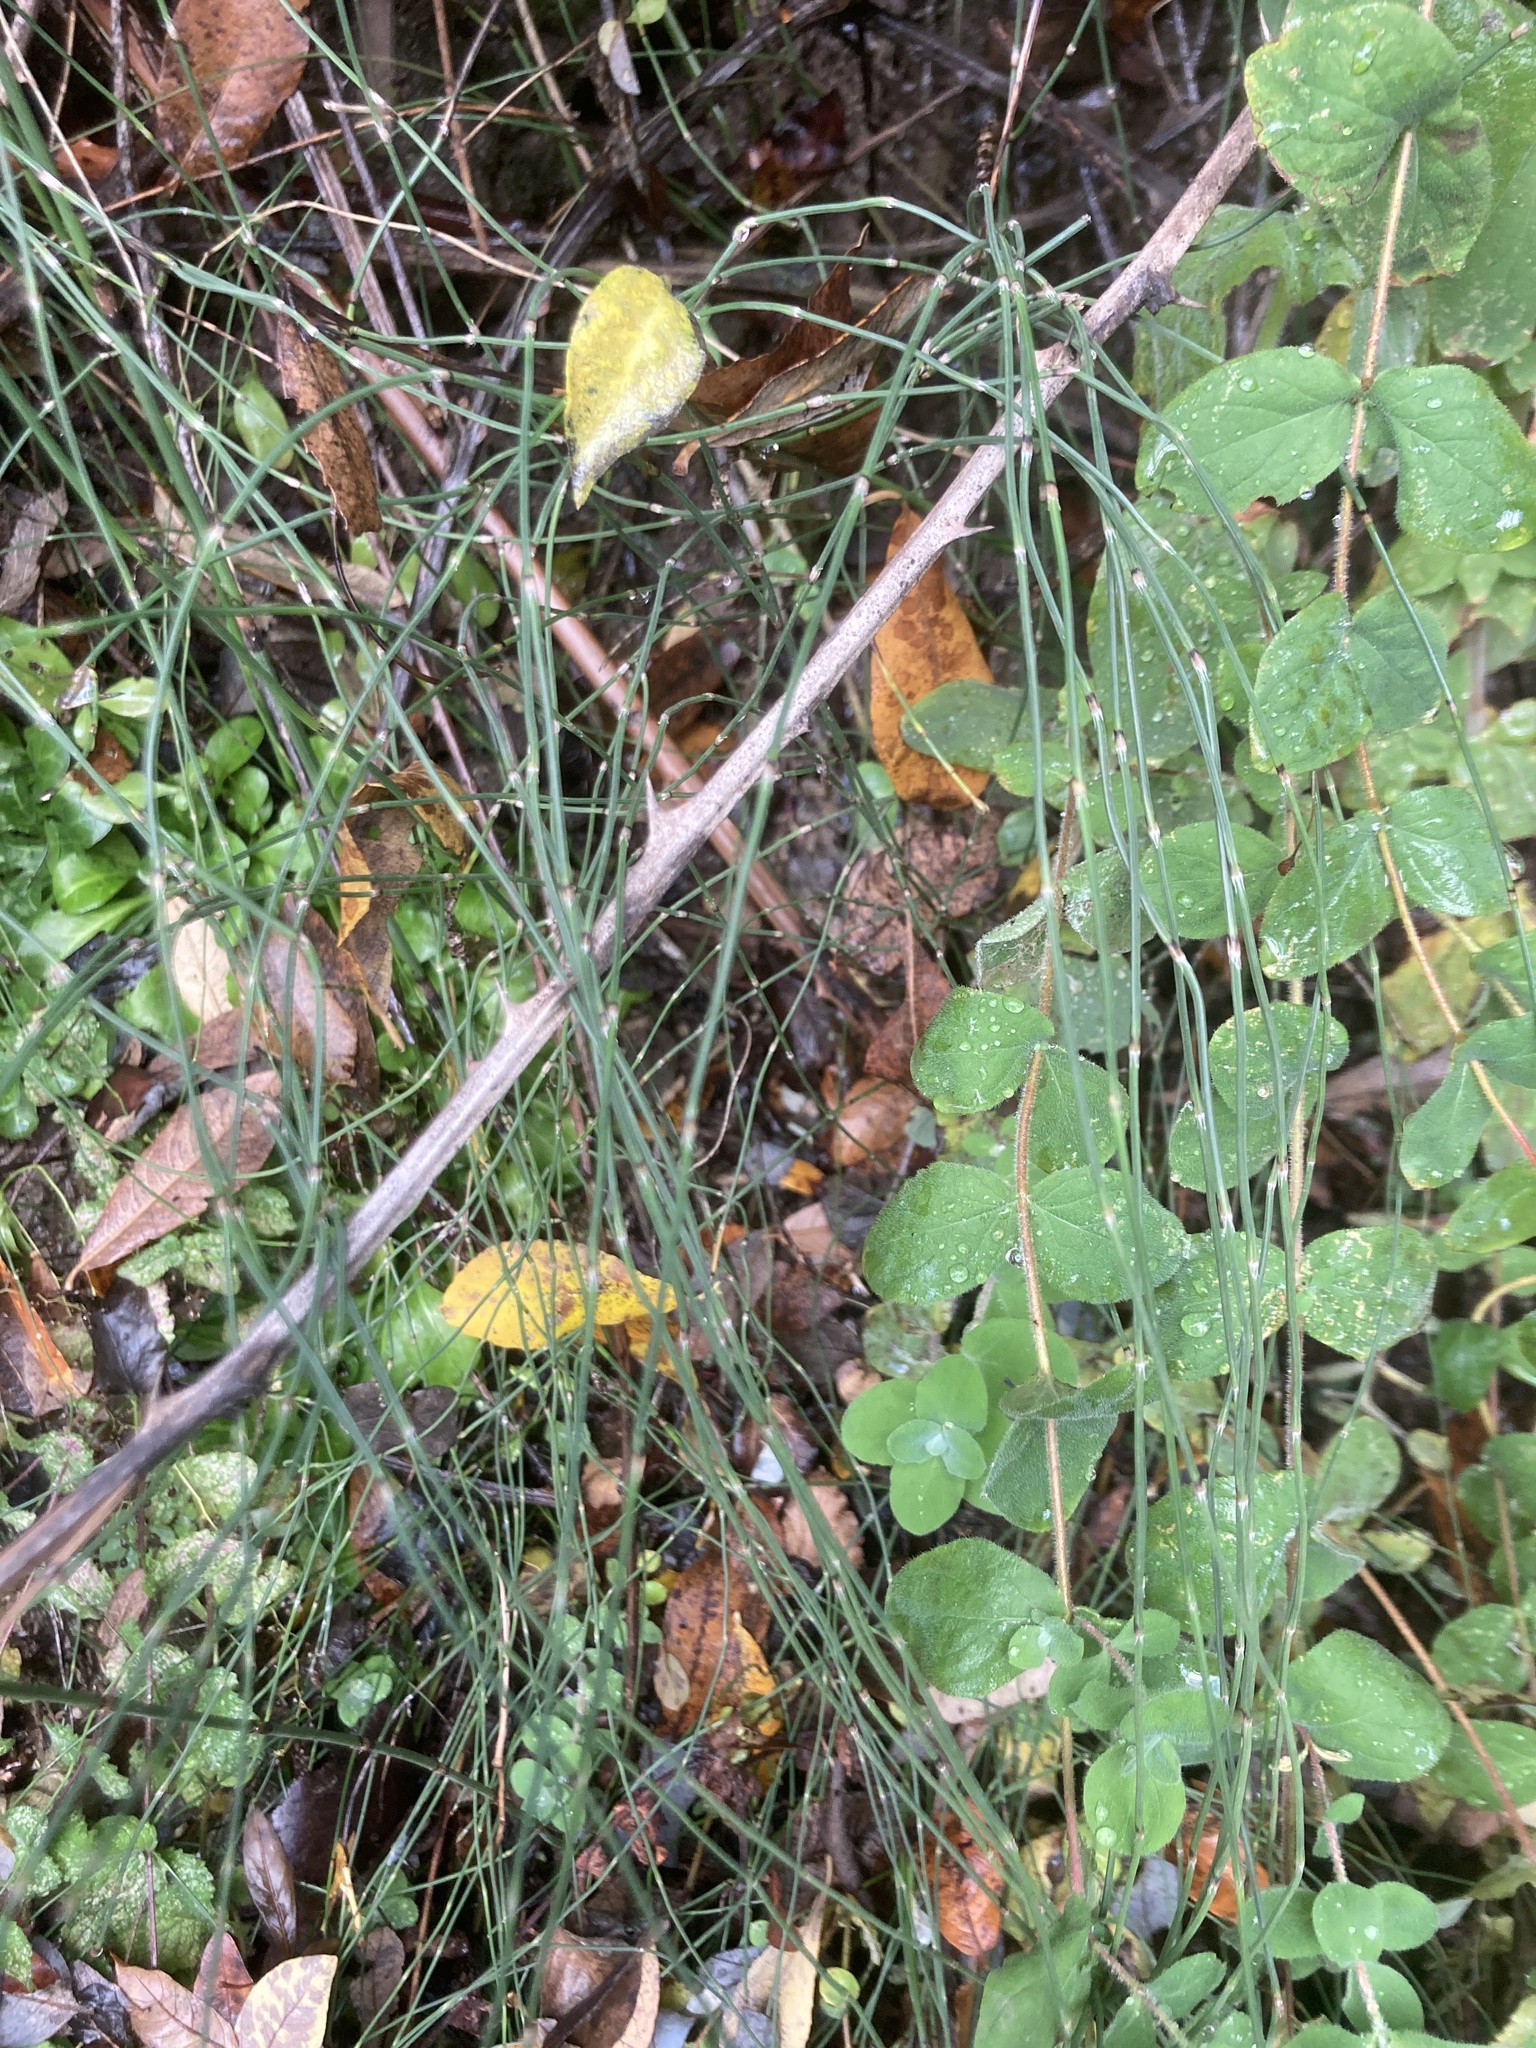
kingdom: Plantae
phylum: Tracheophyta
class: Polypodiopsida
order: Equisetales
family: Equisetaceae
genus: Equisetum
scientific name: Equisetum ramosissimum
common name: Branched horsetail
